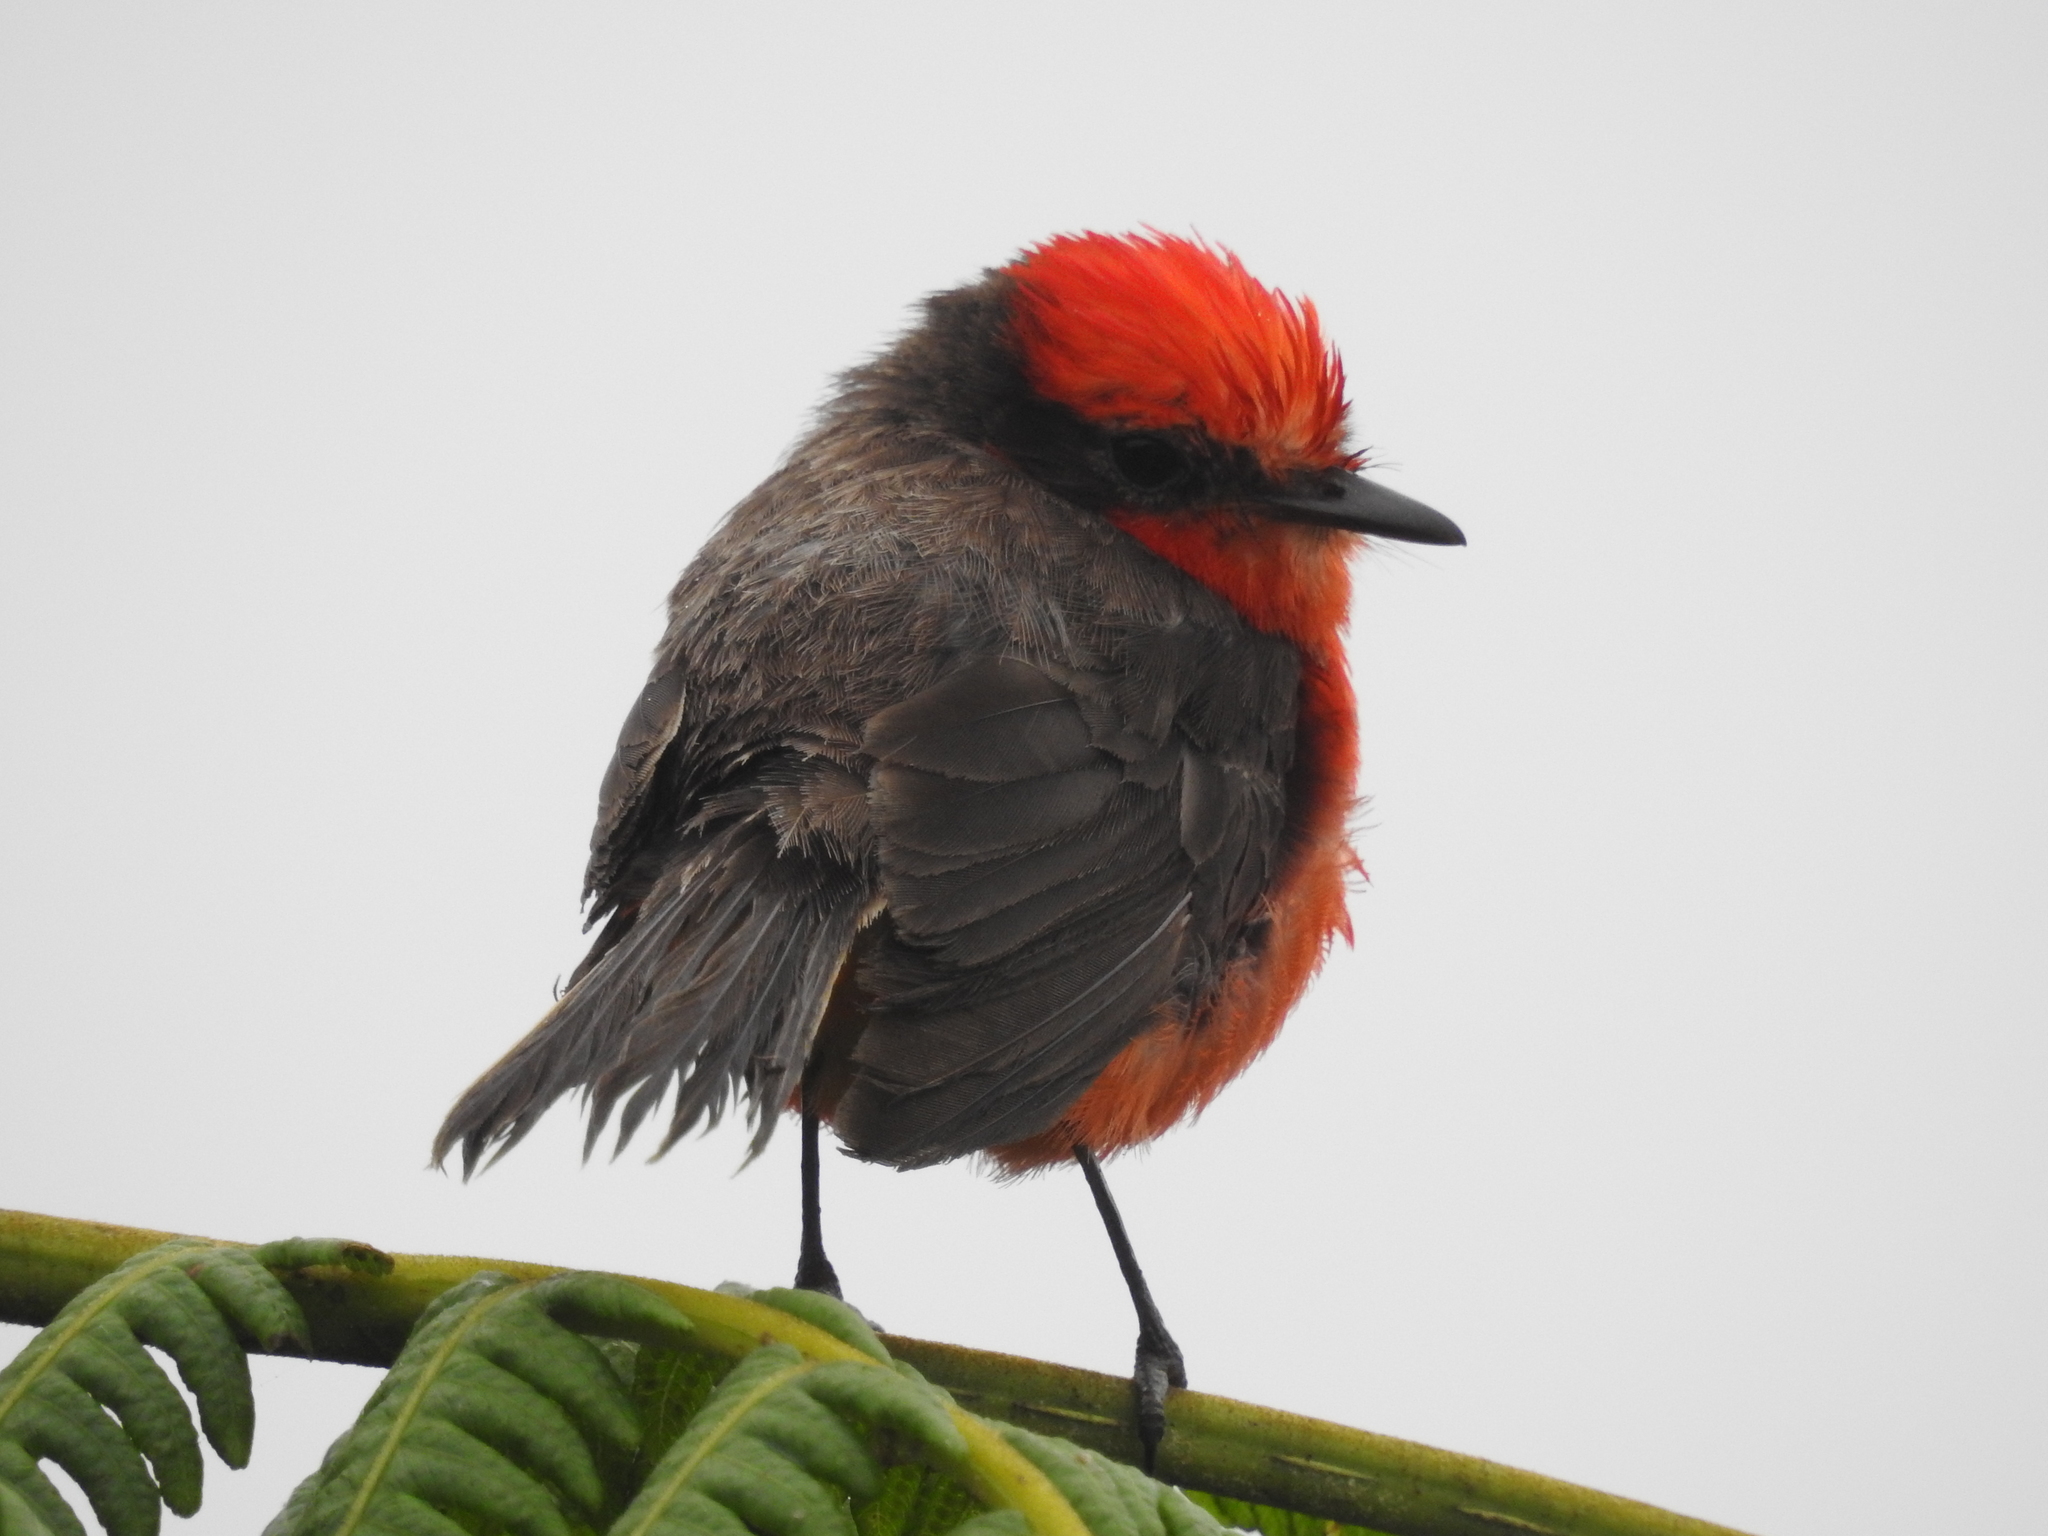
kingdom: Animalia
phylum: Chordata
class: Aves
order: Passeriformes
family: Tyrannidae
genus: Pyrocephalus
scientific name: Pyrocephalus rubinus
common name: Vermilion flycatcher
